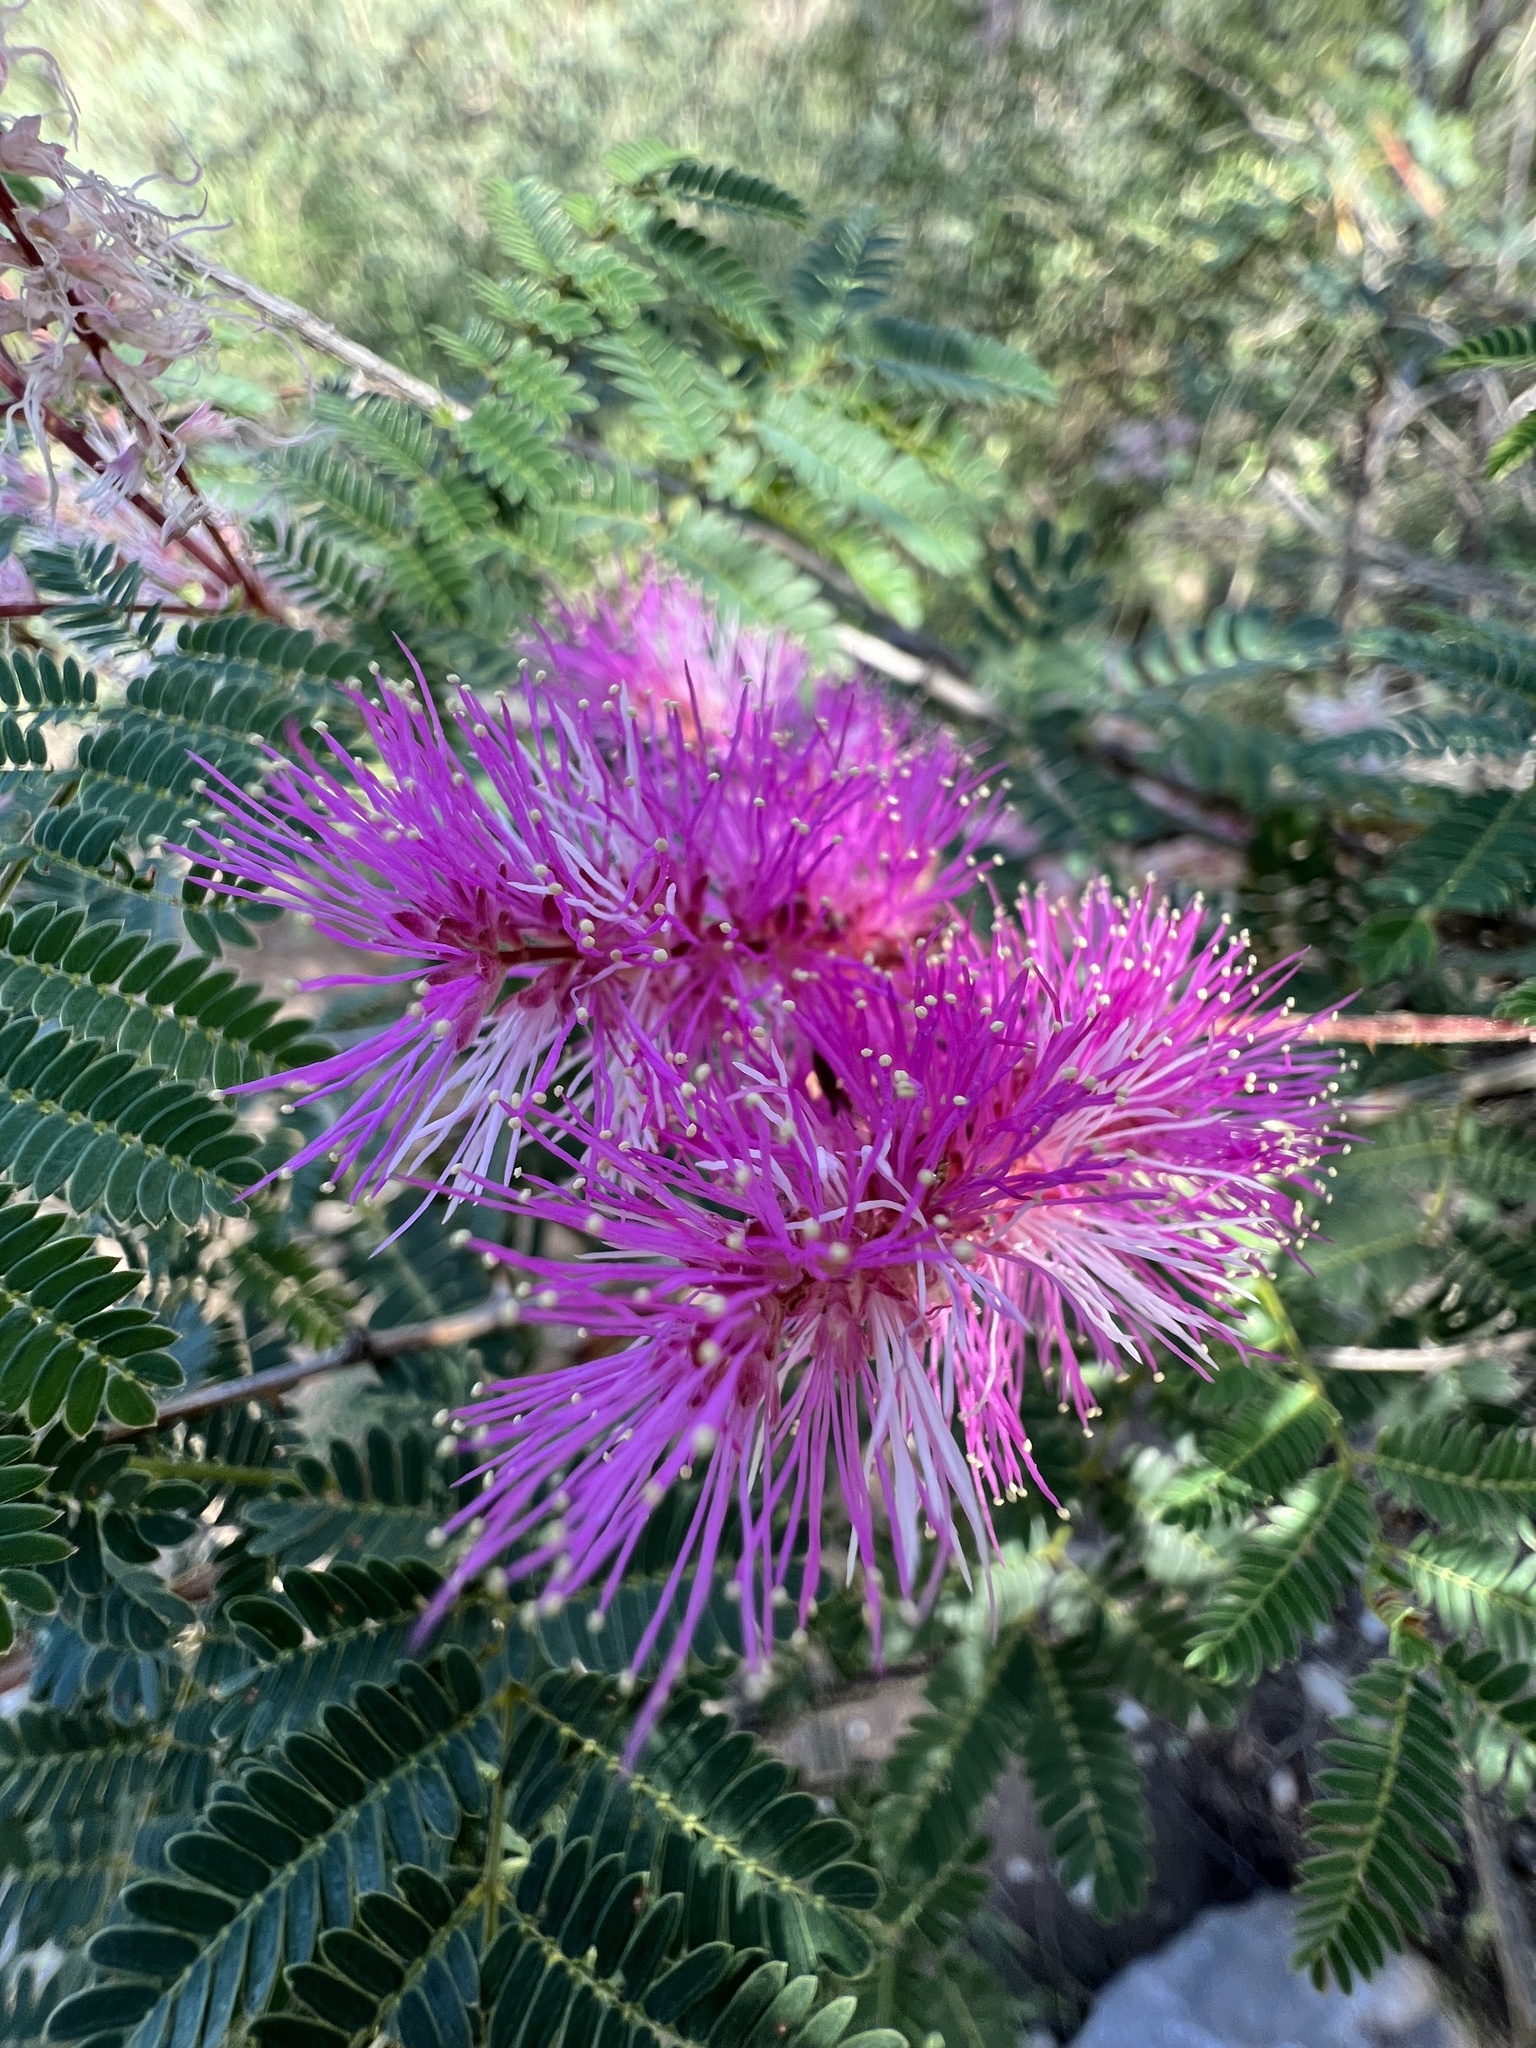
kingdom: Plantae
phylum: Tracheophyta
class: Magnoliopsida
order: Fabales
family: Fabaceae
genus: Mimosa
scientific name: Mimosa dysocarpa
